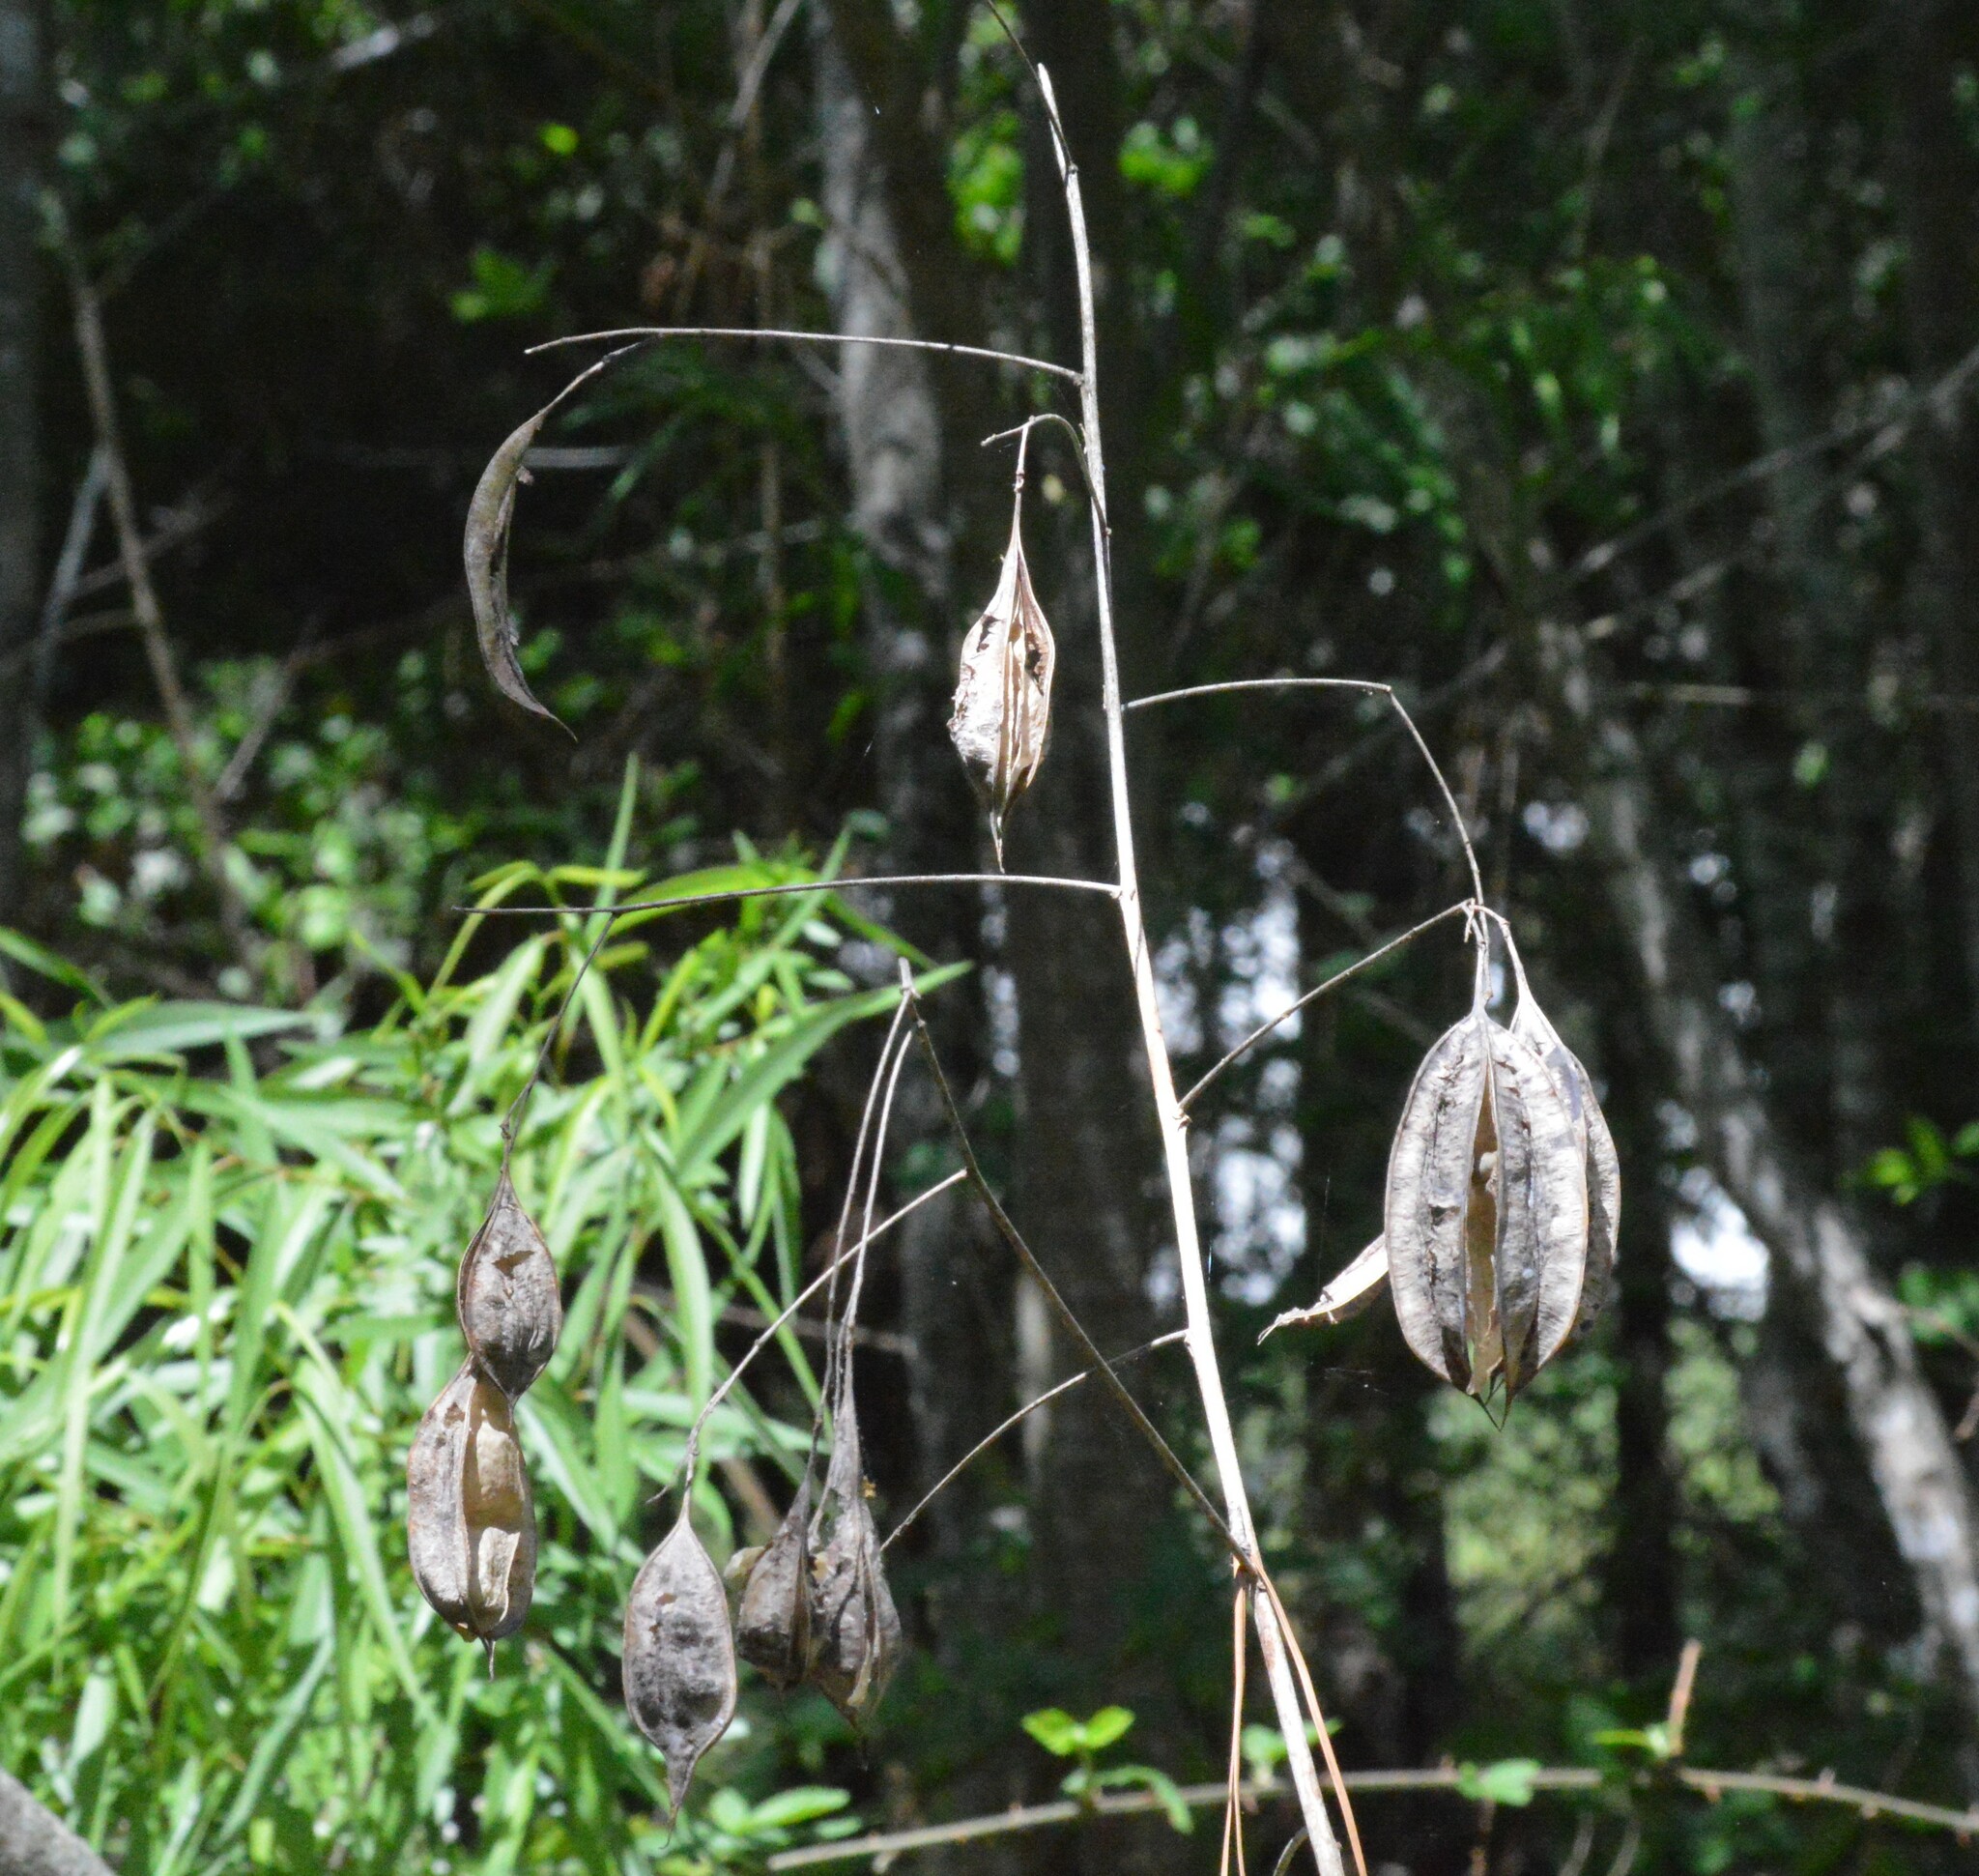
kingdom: Plantae
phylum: Tracheophyta
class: Magnoliopsida
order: Fabales
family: Fabaceae
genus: Sesbania
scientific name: Sesbania vesicaria
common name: Bagpod
